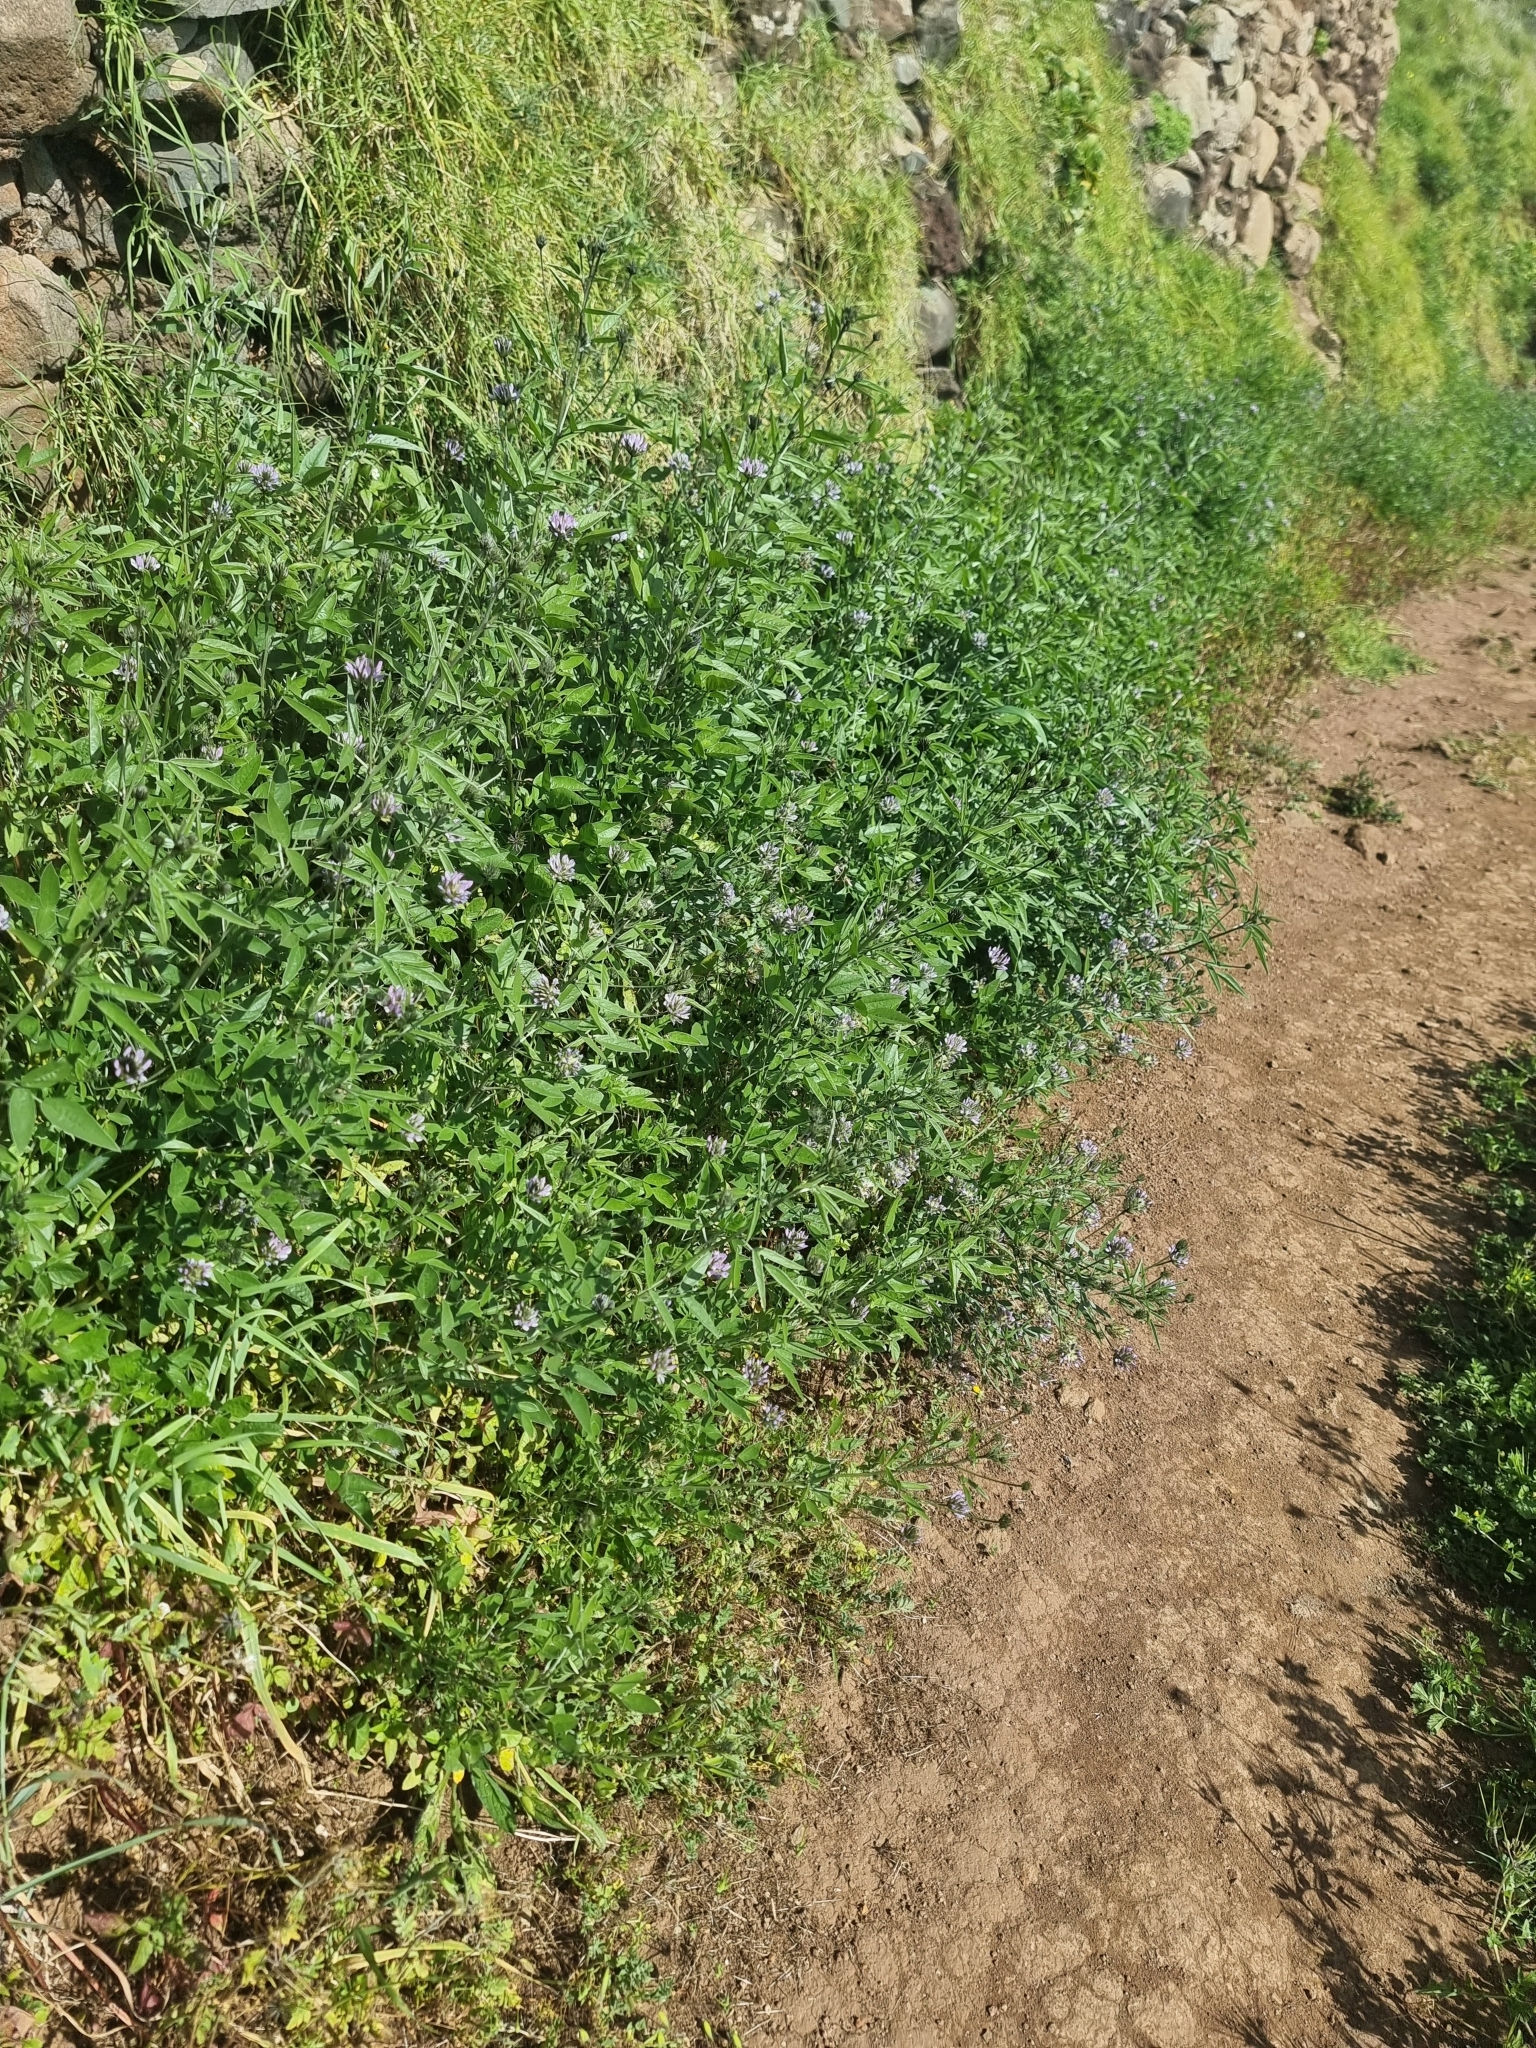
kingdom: Plantae
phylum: Tracheophyta
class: Magnoliopsida
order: Fabales
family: Fabaceae
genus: Bituminaria
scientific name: Bituminaria bituminosa
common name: Arabian pea
